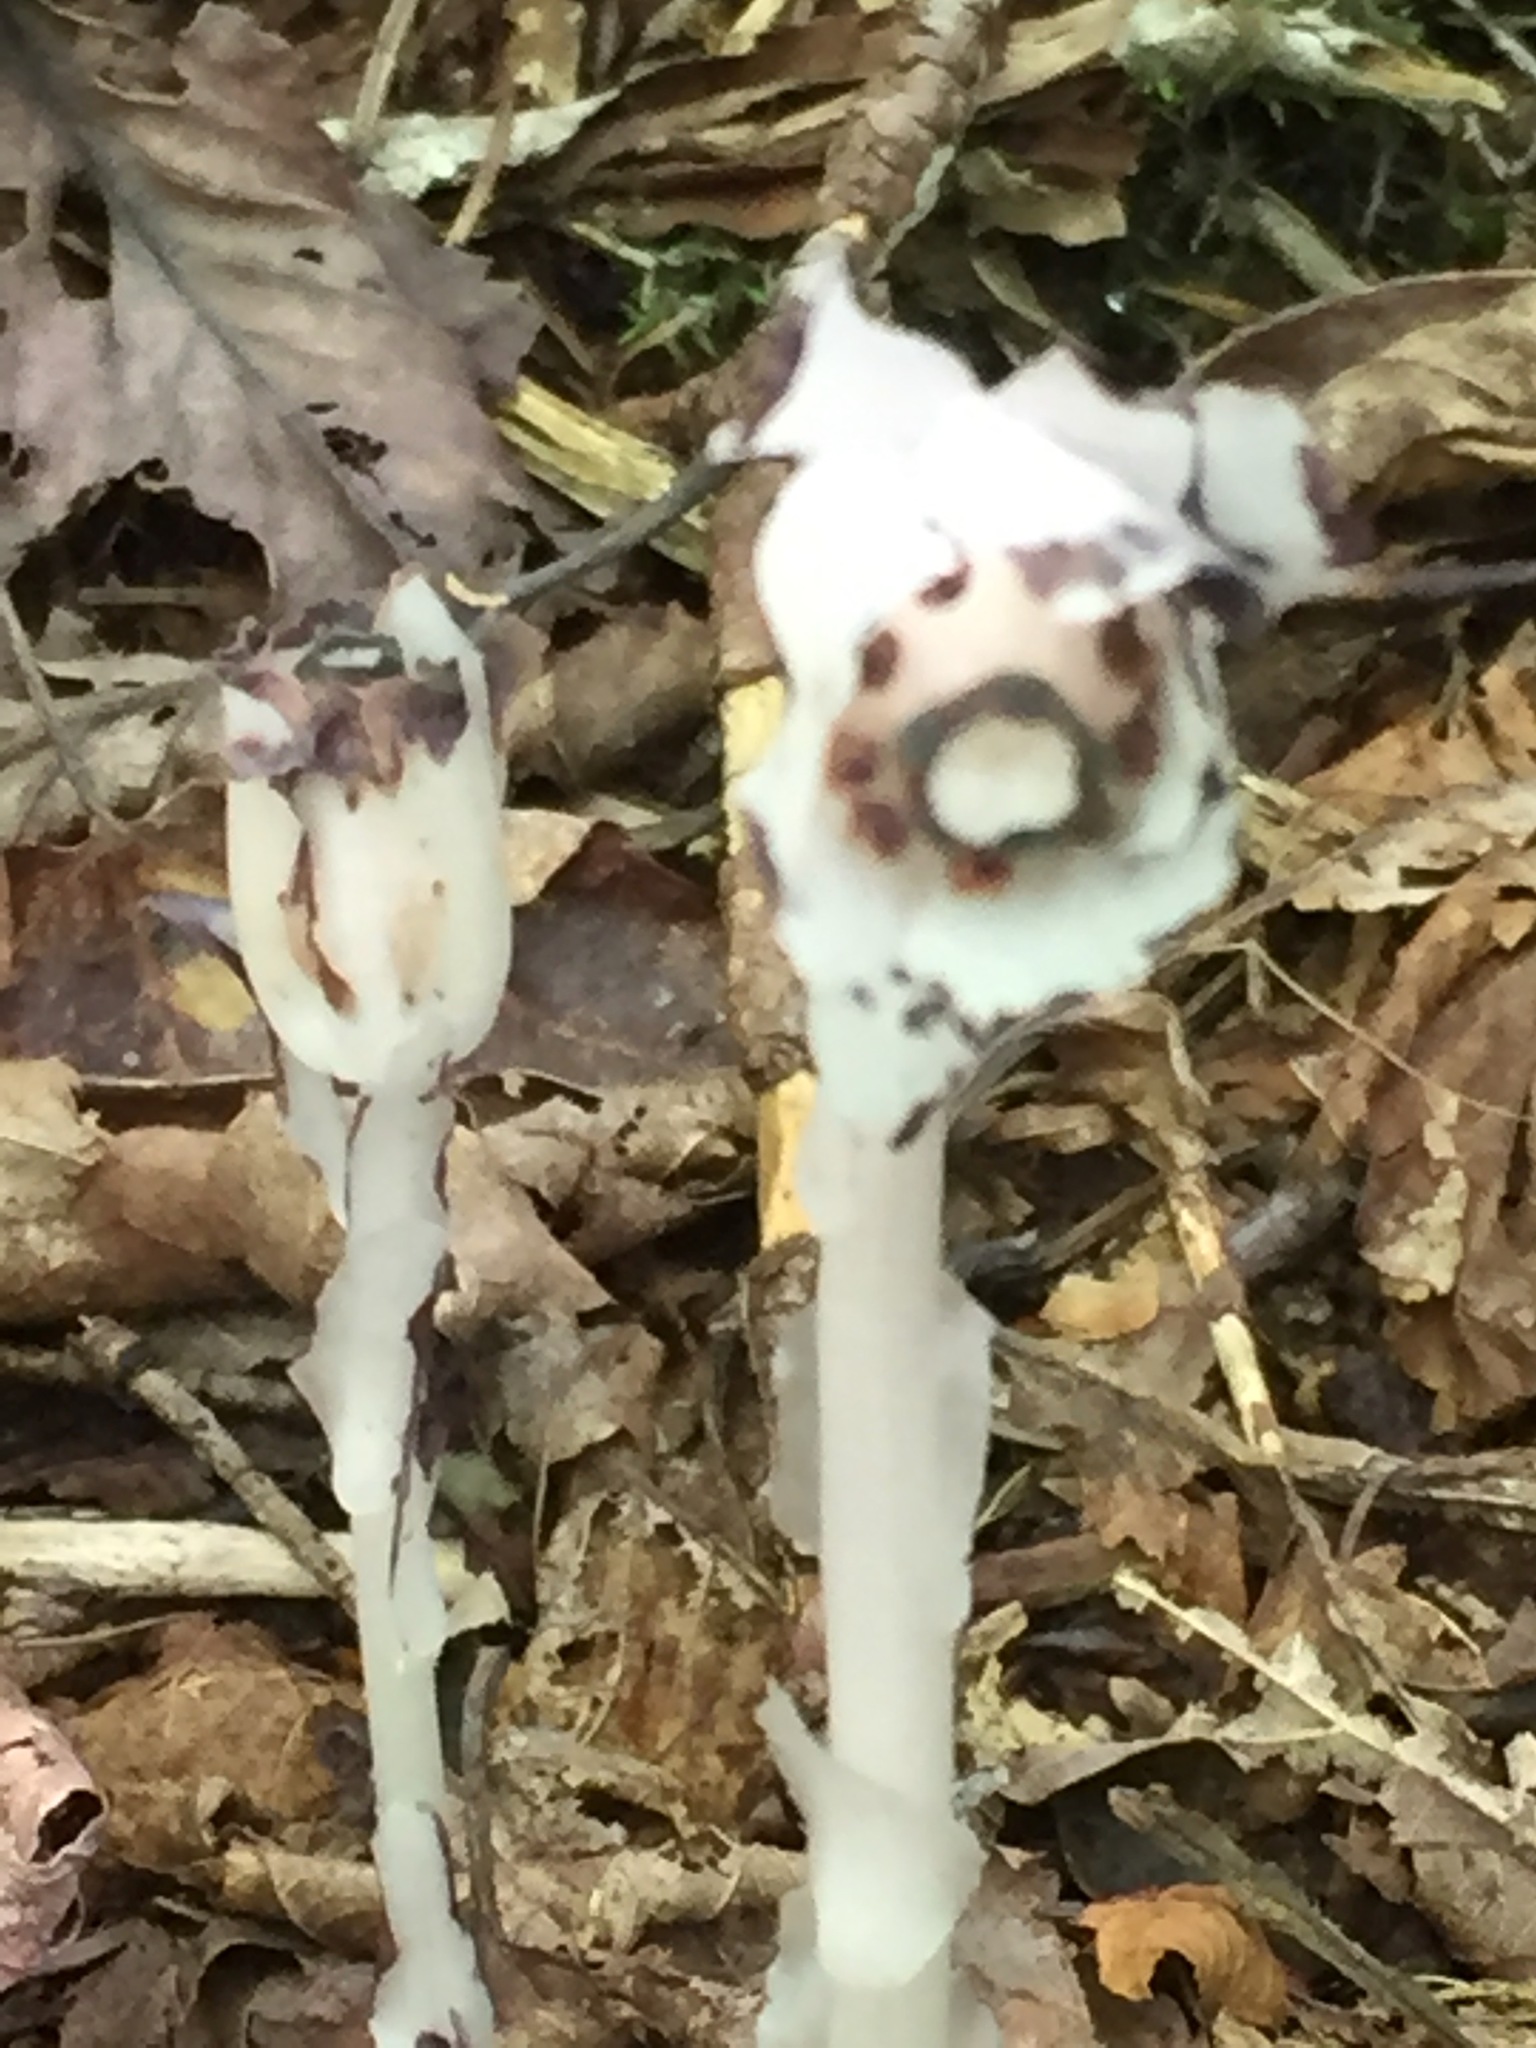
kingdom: Plantae
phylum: Tracheophyta
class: Magnoliopsida
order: Ericales
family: Ericaceae
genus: Monotropa
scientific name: Monotropa uniflora
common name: Convulsion root
